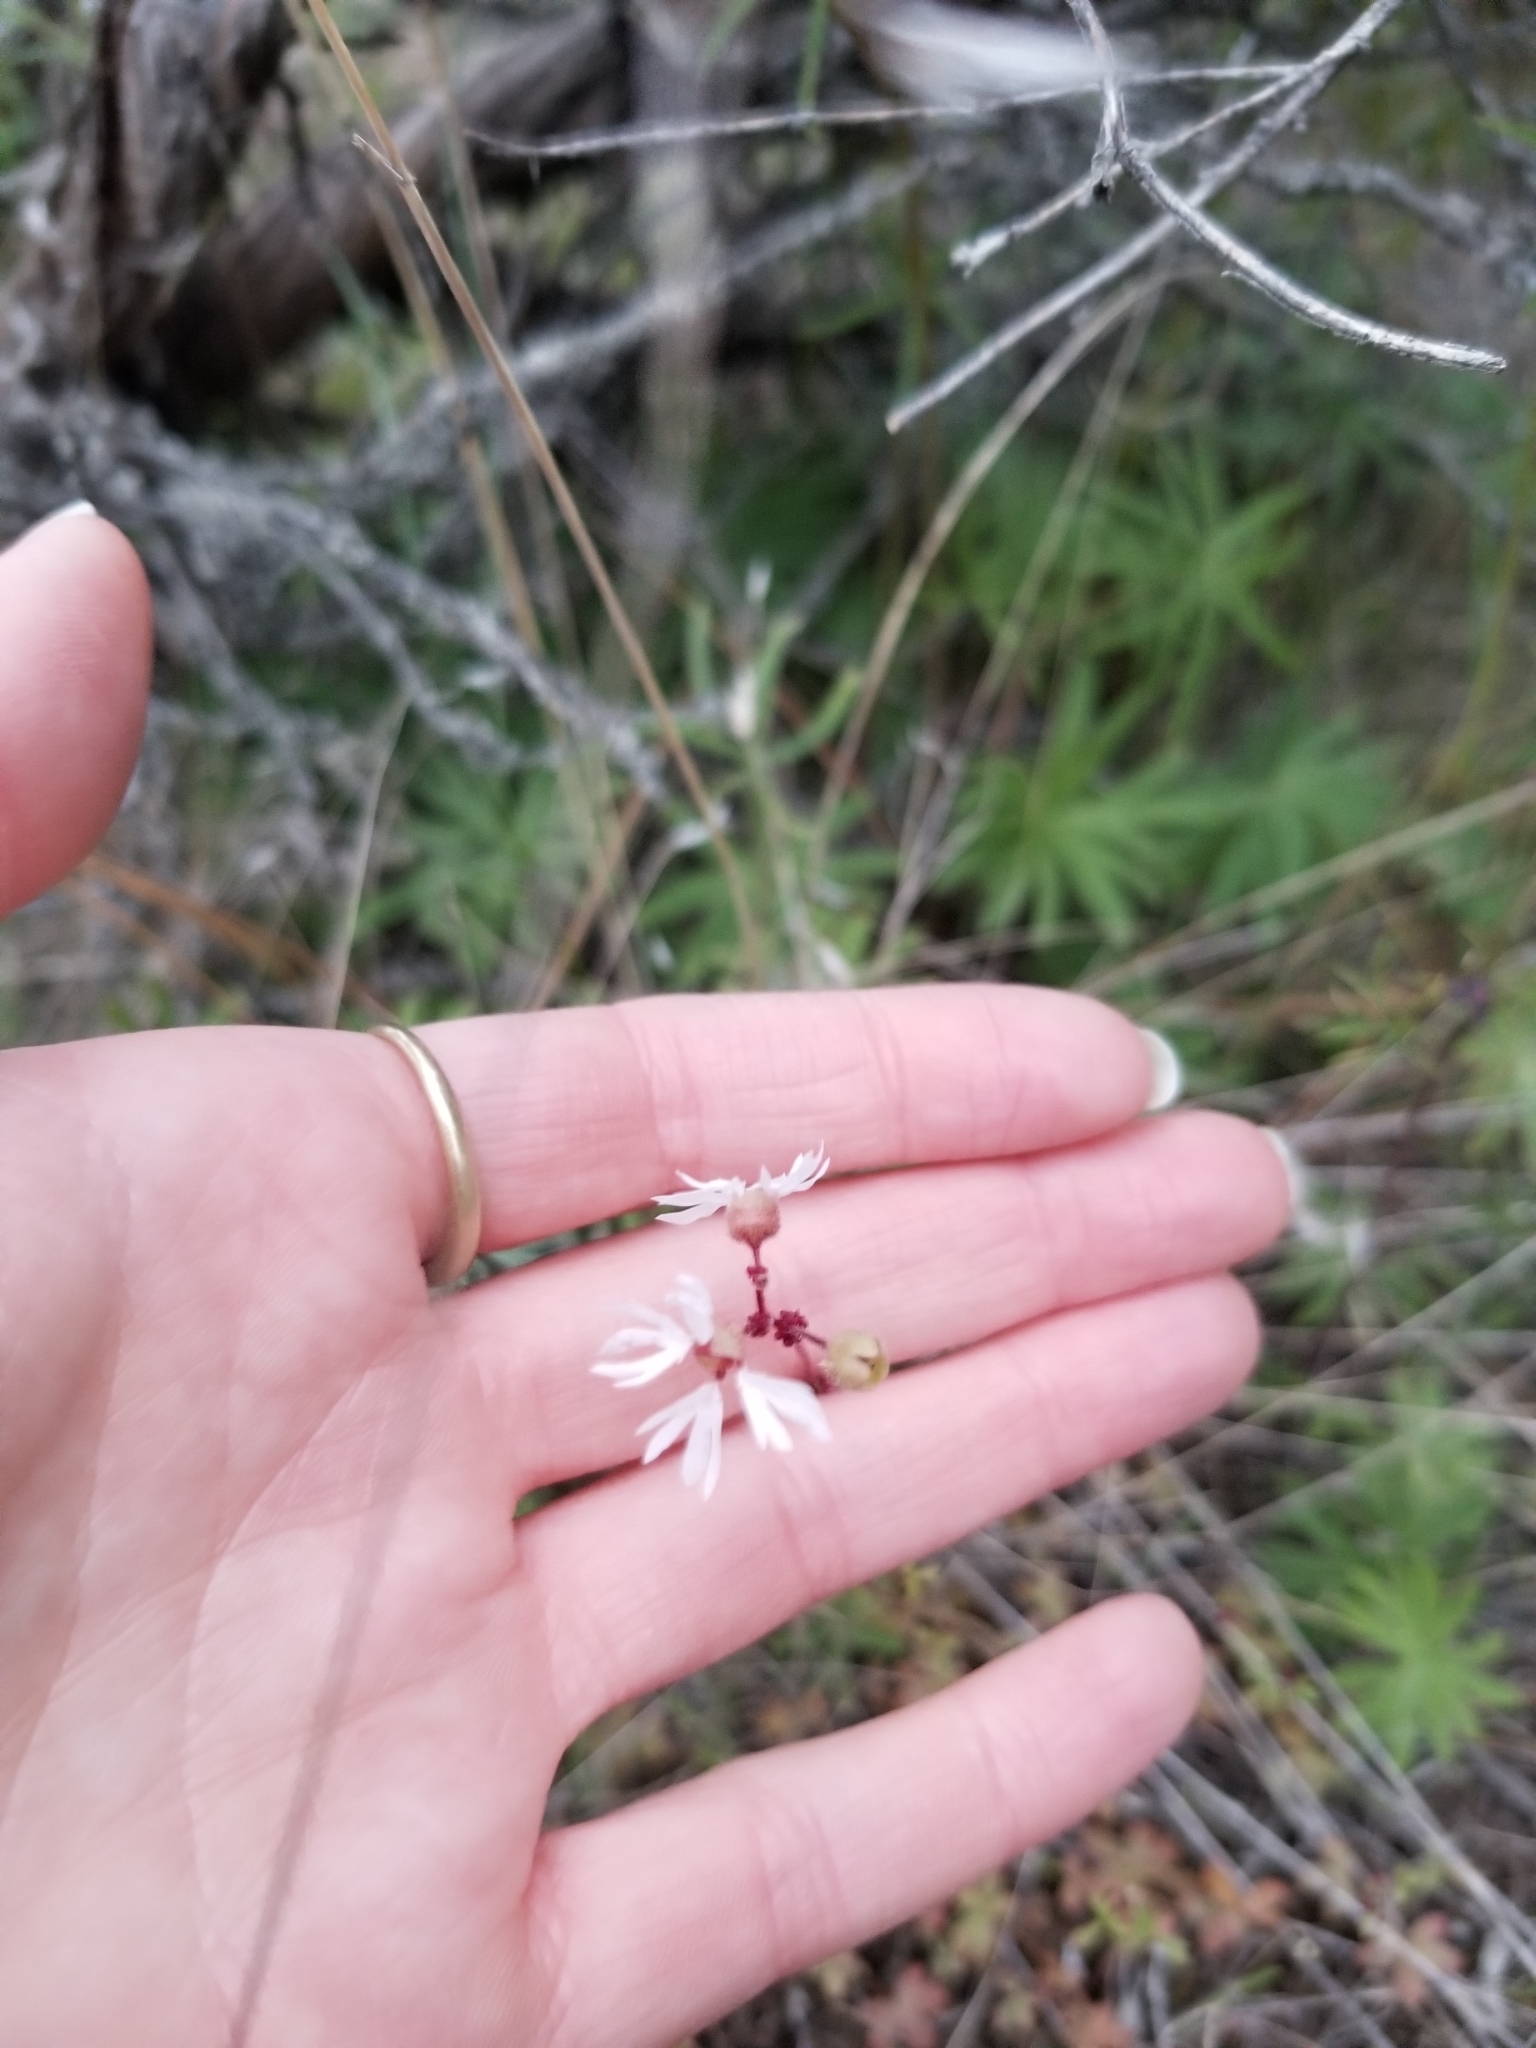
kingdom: Plantae
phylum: Tracheophyta
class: Magnoliopsida
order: Saxifragales
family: Saxifragaceae
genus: Lithophragma
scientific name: Lithophragma glabrum
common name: Bulbous prairie-star
